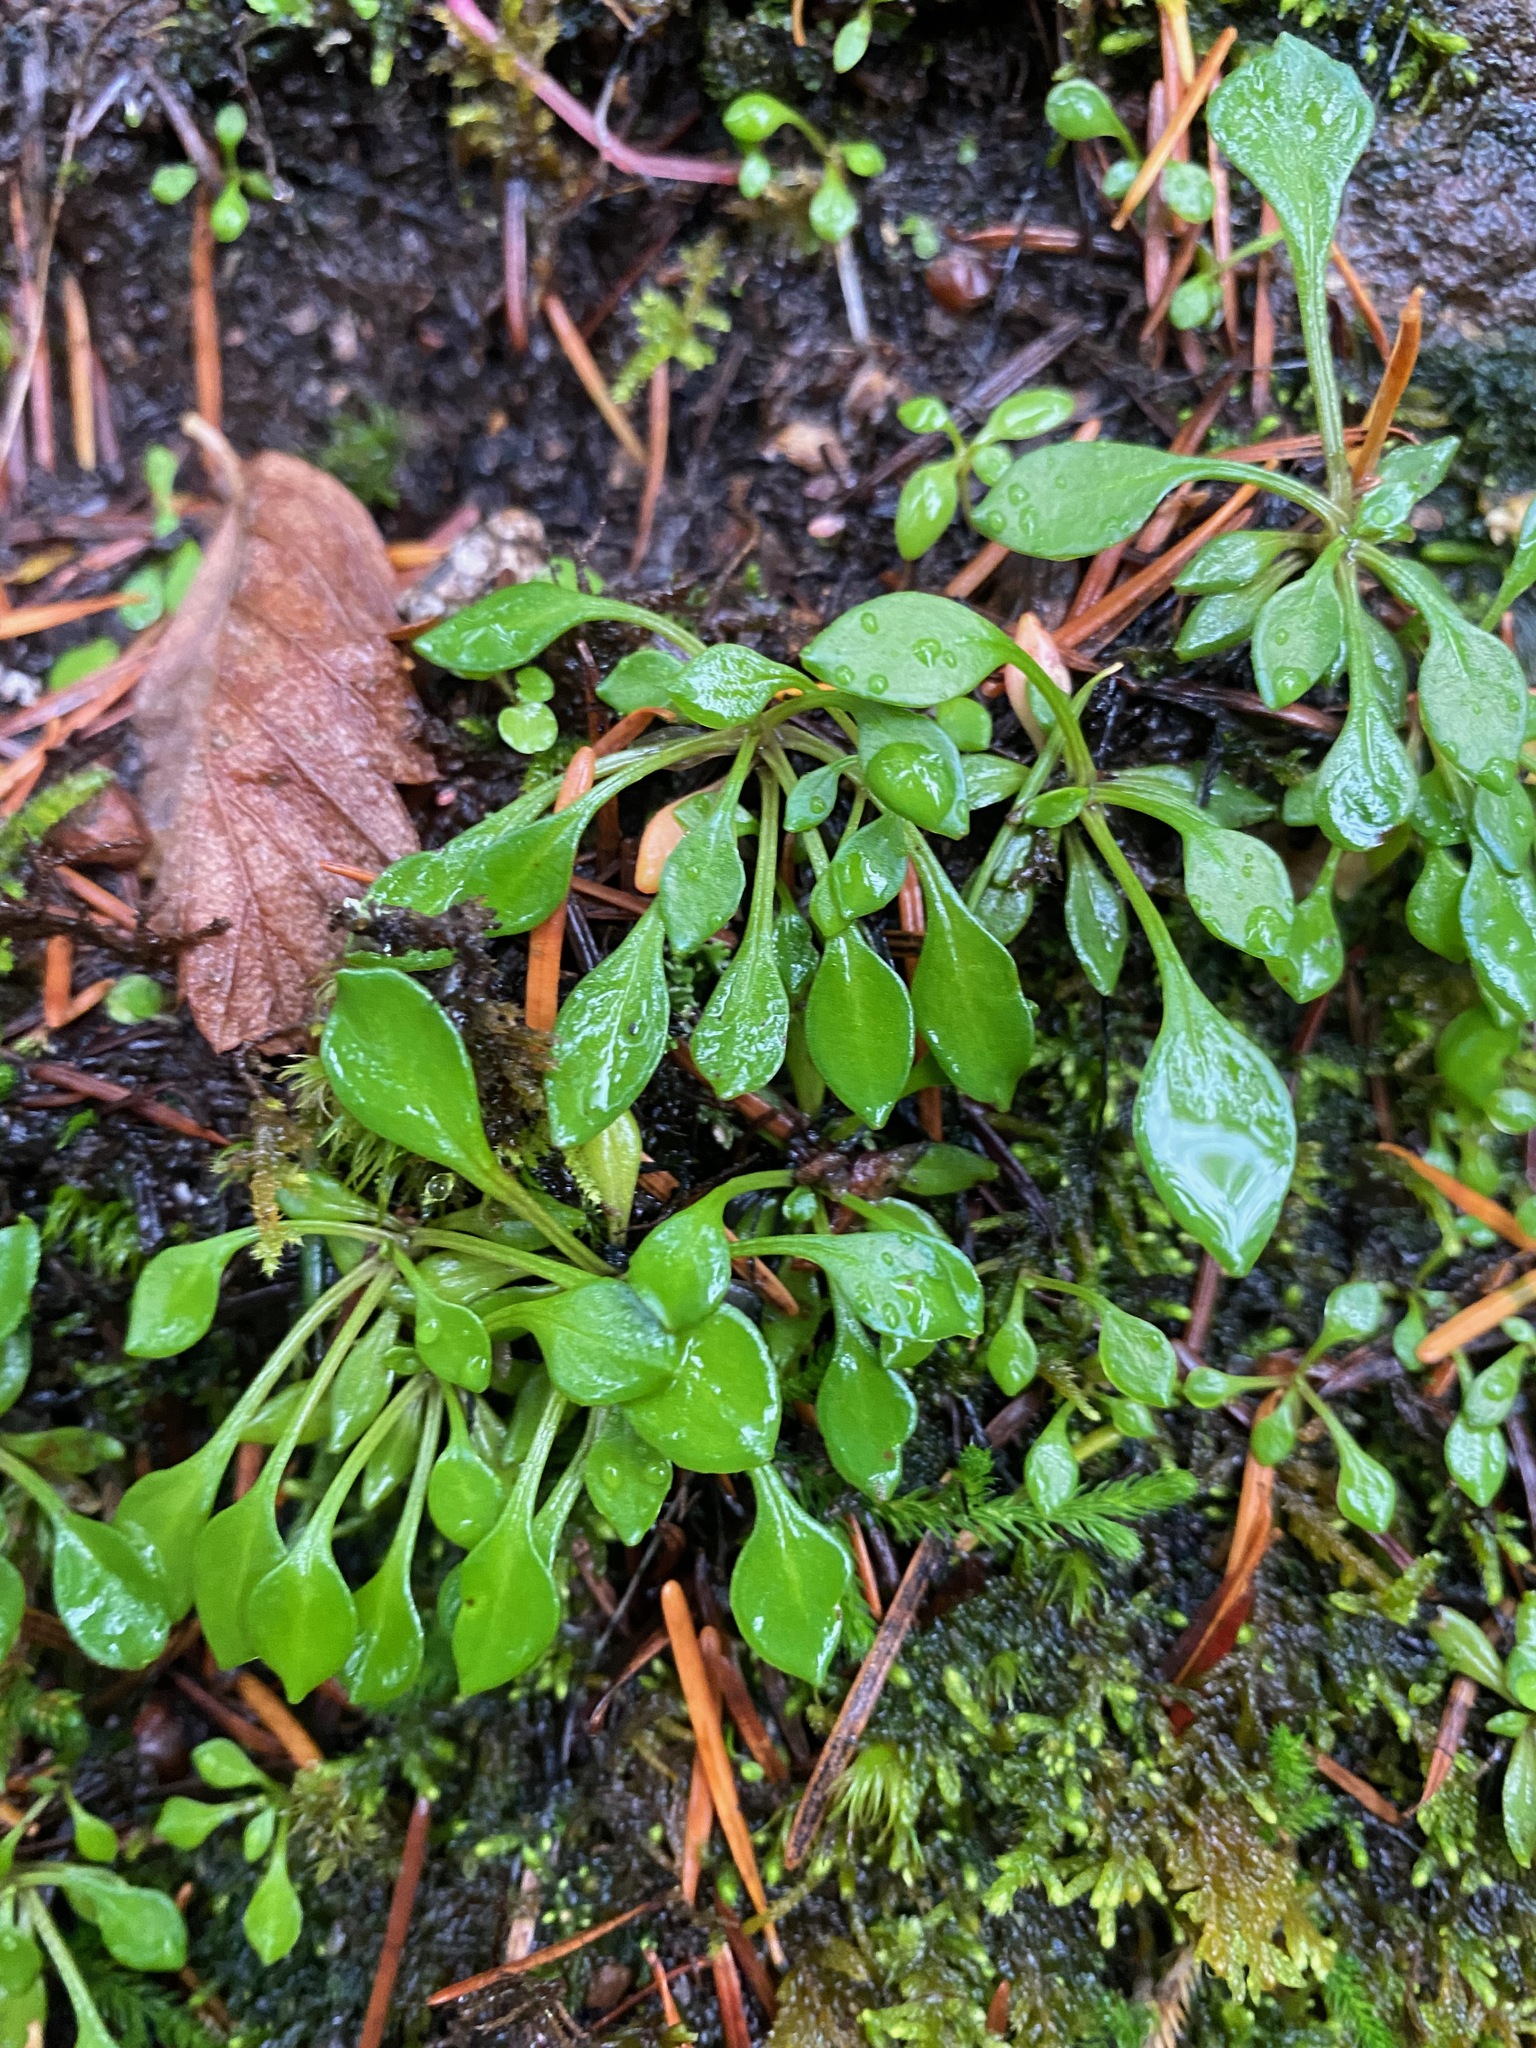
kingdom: Plantae
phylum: Tracheophyta
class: Magnoliopsida
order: Caryophyllales
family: Montiaceae
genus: Montia
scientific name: Montia parvifolia
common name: Small-leaved blinks
